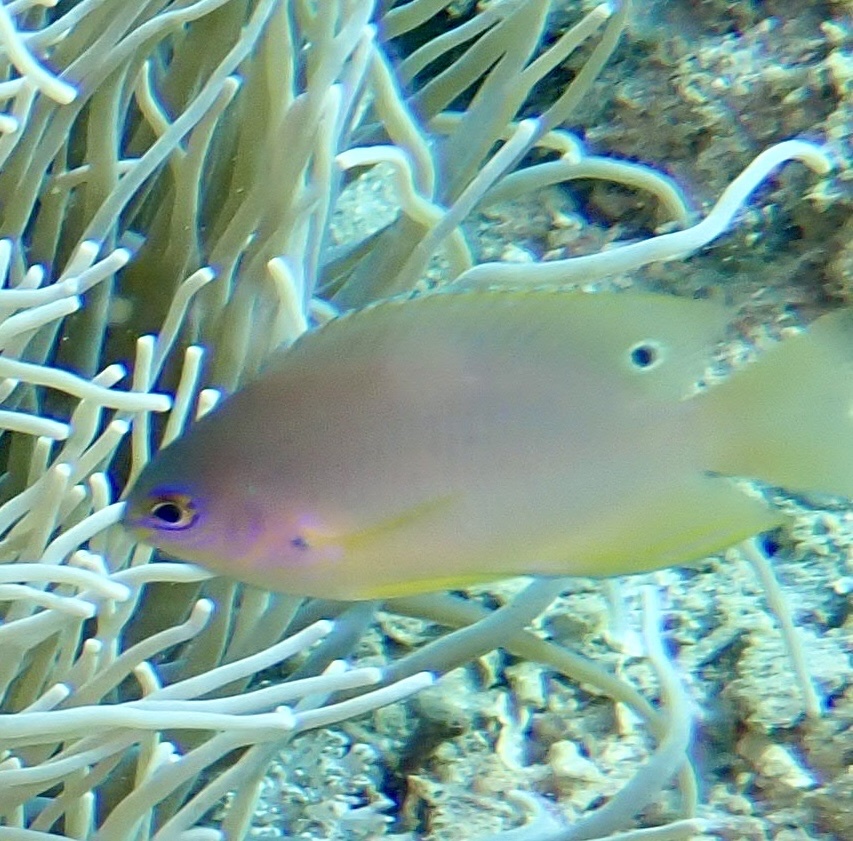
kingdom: Animalia
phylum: Chordata
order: Perciformes
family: Pomacentridae
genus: Pomacentrus
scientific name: Pomacentrus amboinensis
